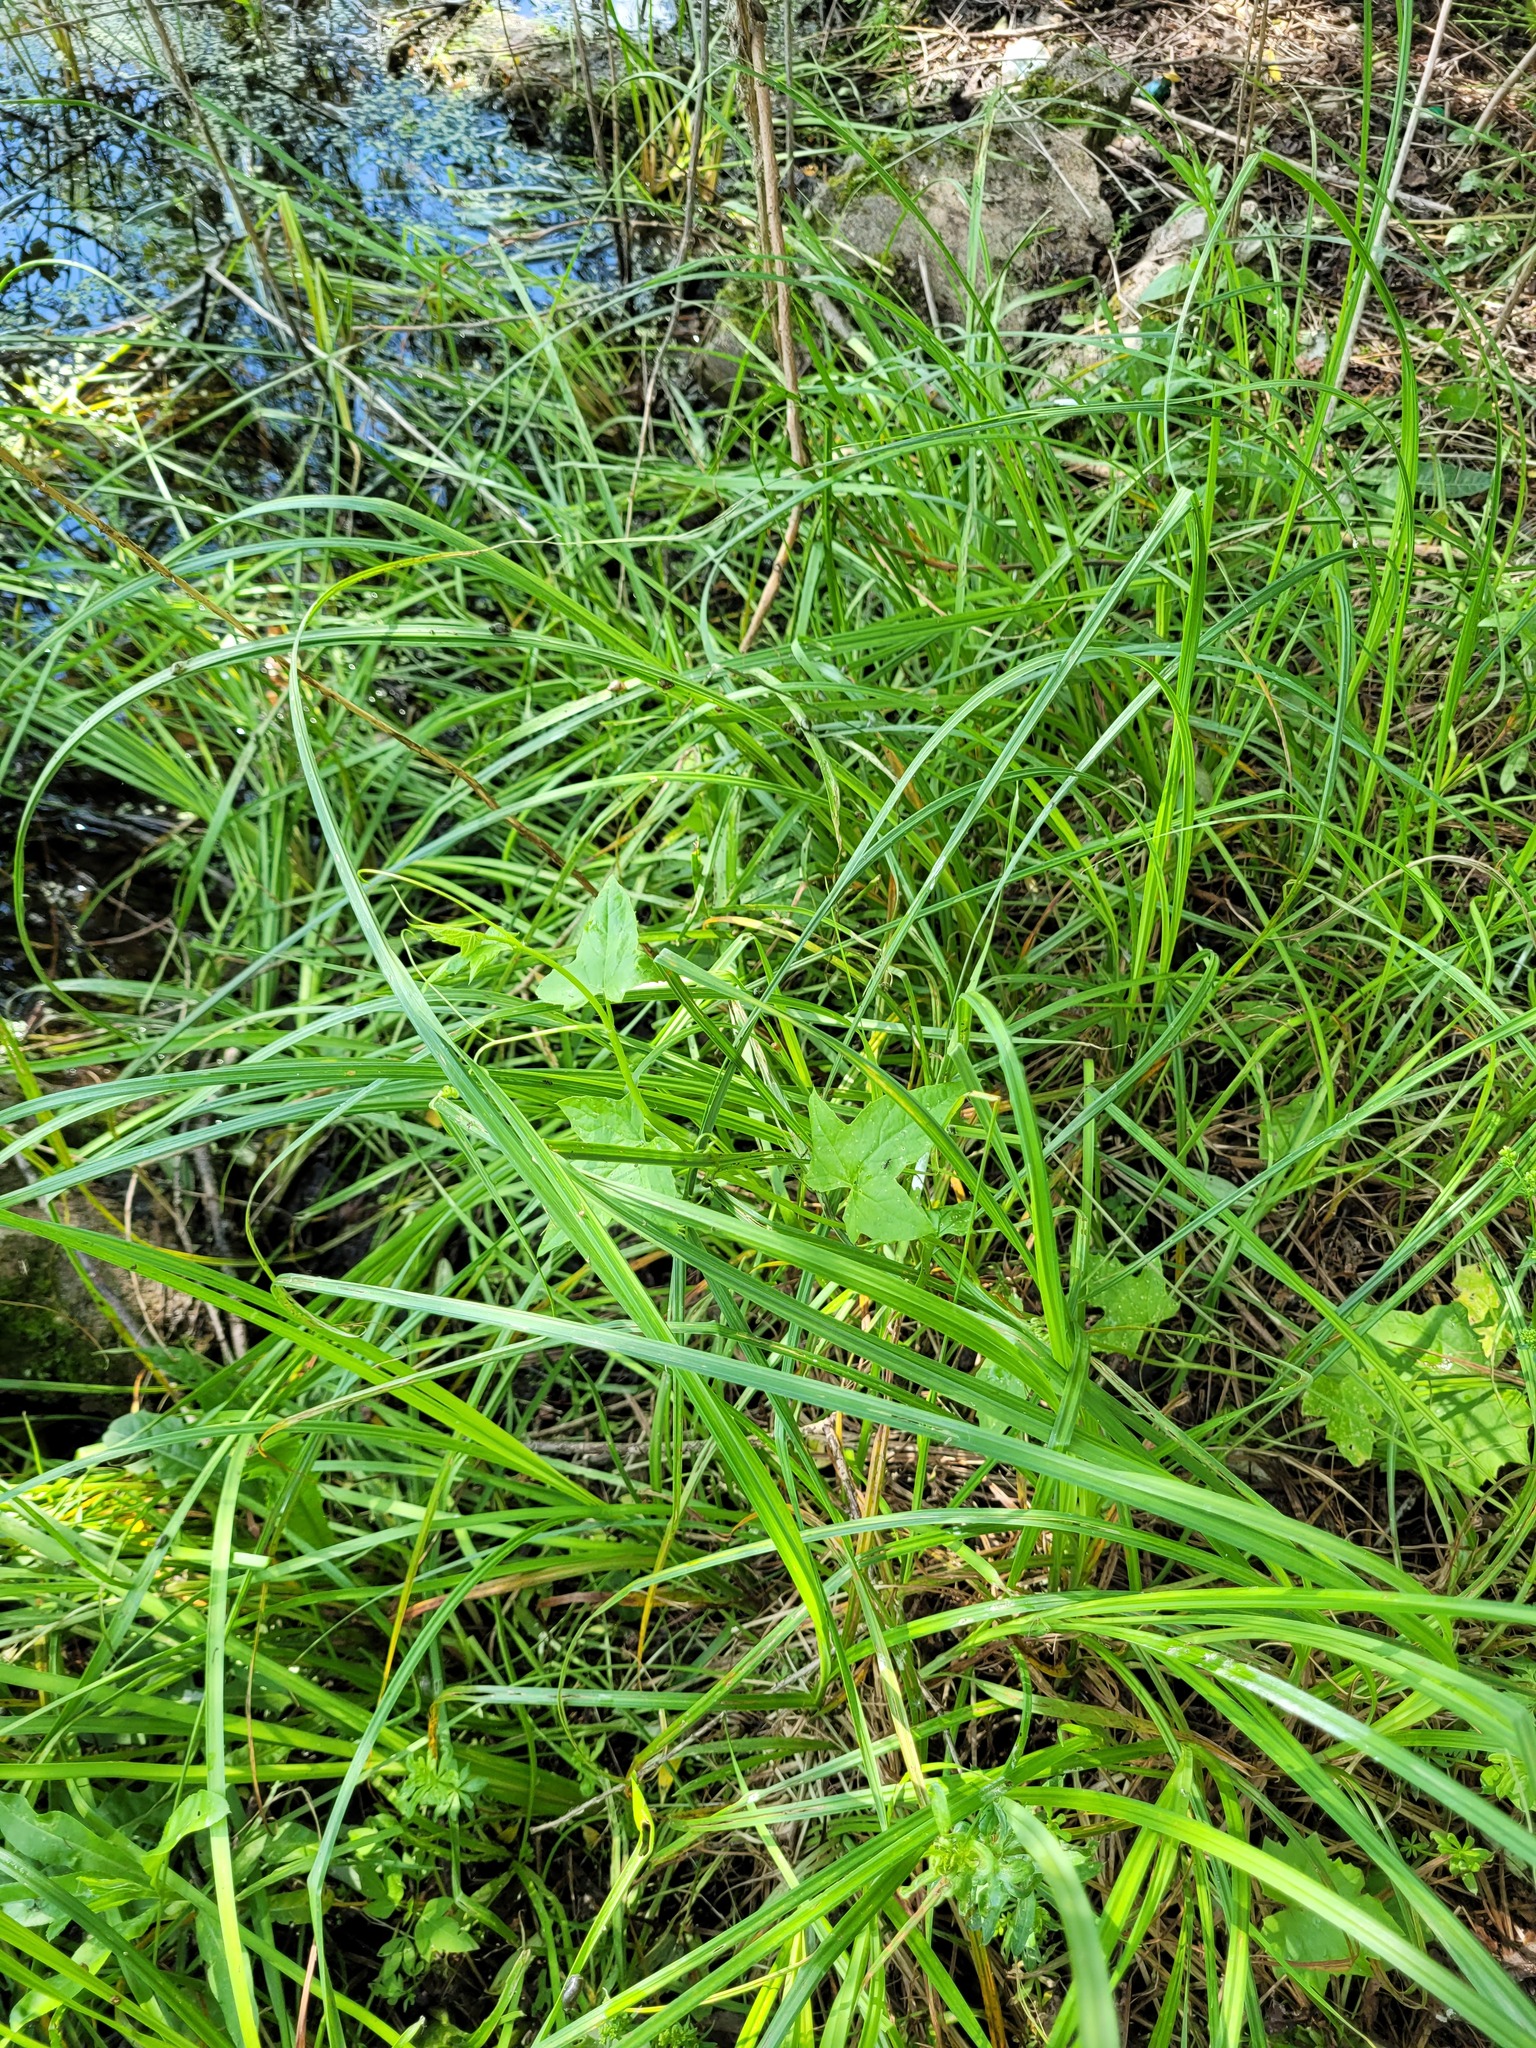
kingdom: Plantae
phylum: Tracheophyta
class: Magnoliopsida
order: Cucurbitales
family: Cucurbitaceae
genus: Echinocystis
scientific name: Echinocystis lobata
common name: Wild cucumber
